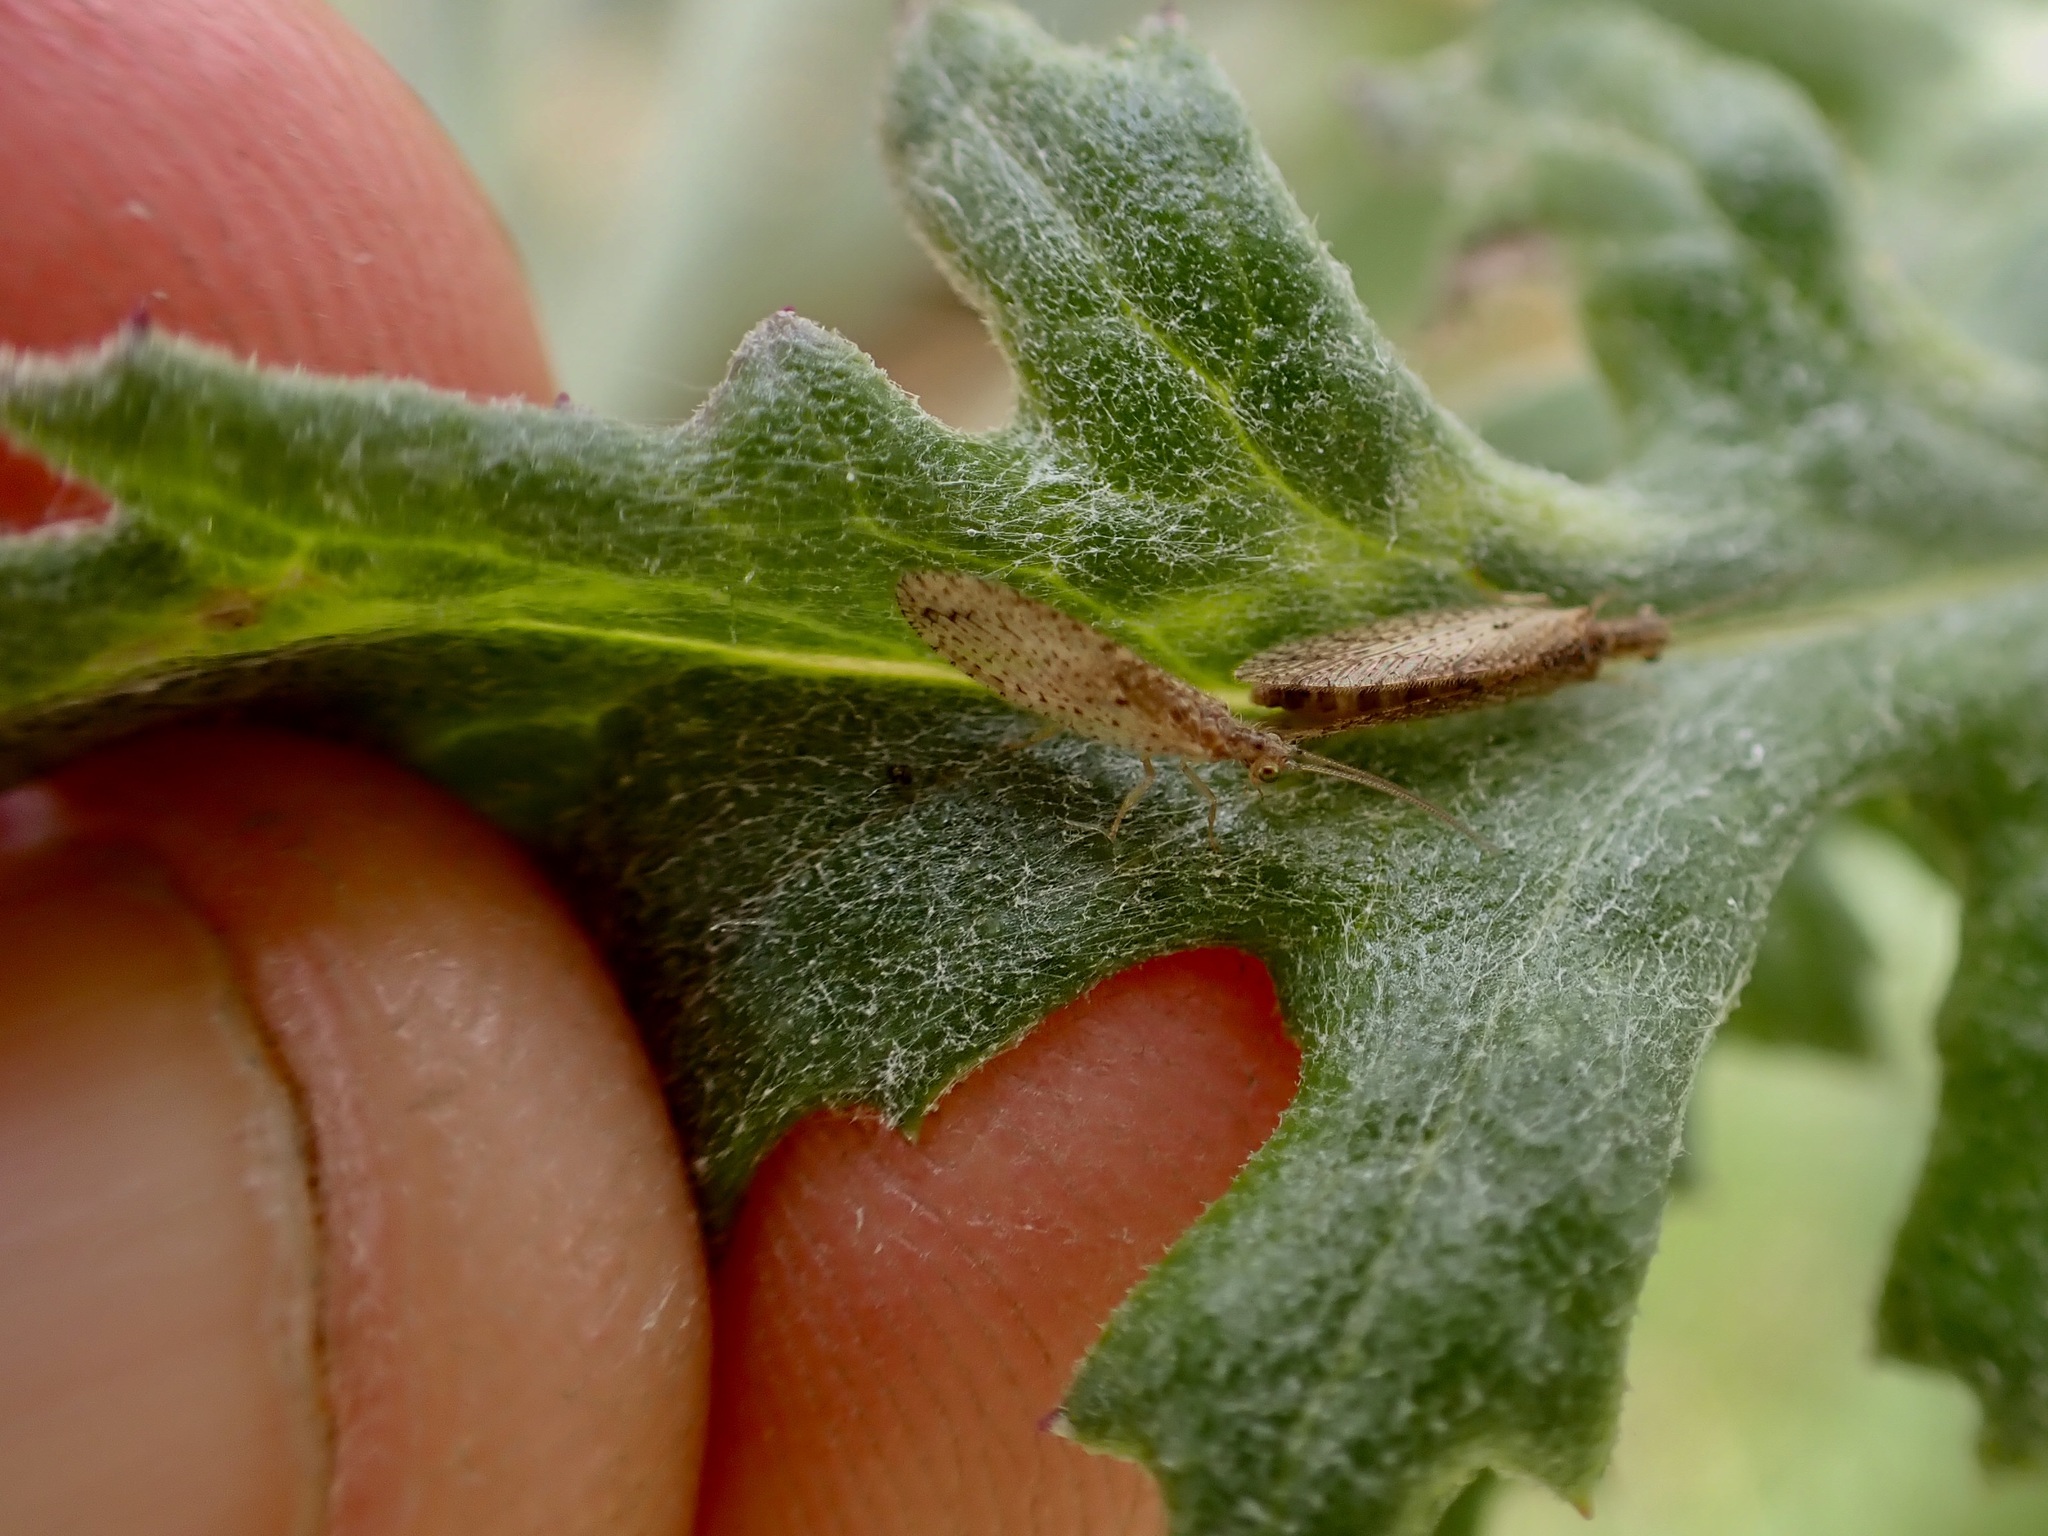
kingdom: Animalia
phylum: Arthropoda
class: Insecta
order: Neuroptera
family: Hemerobiidae
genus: Micromus
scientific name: Micromus tasmaniae
